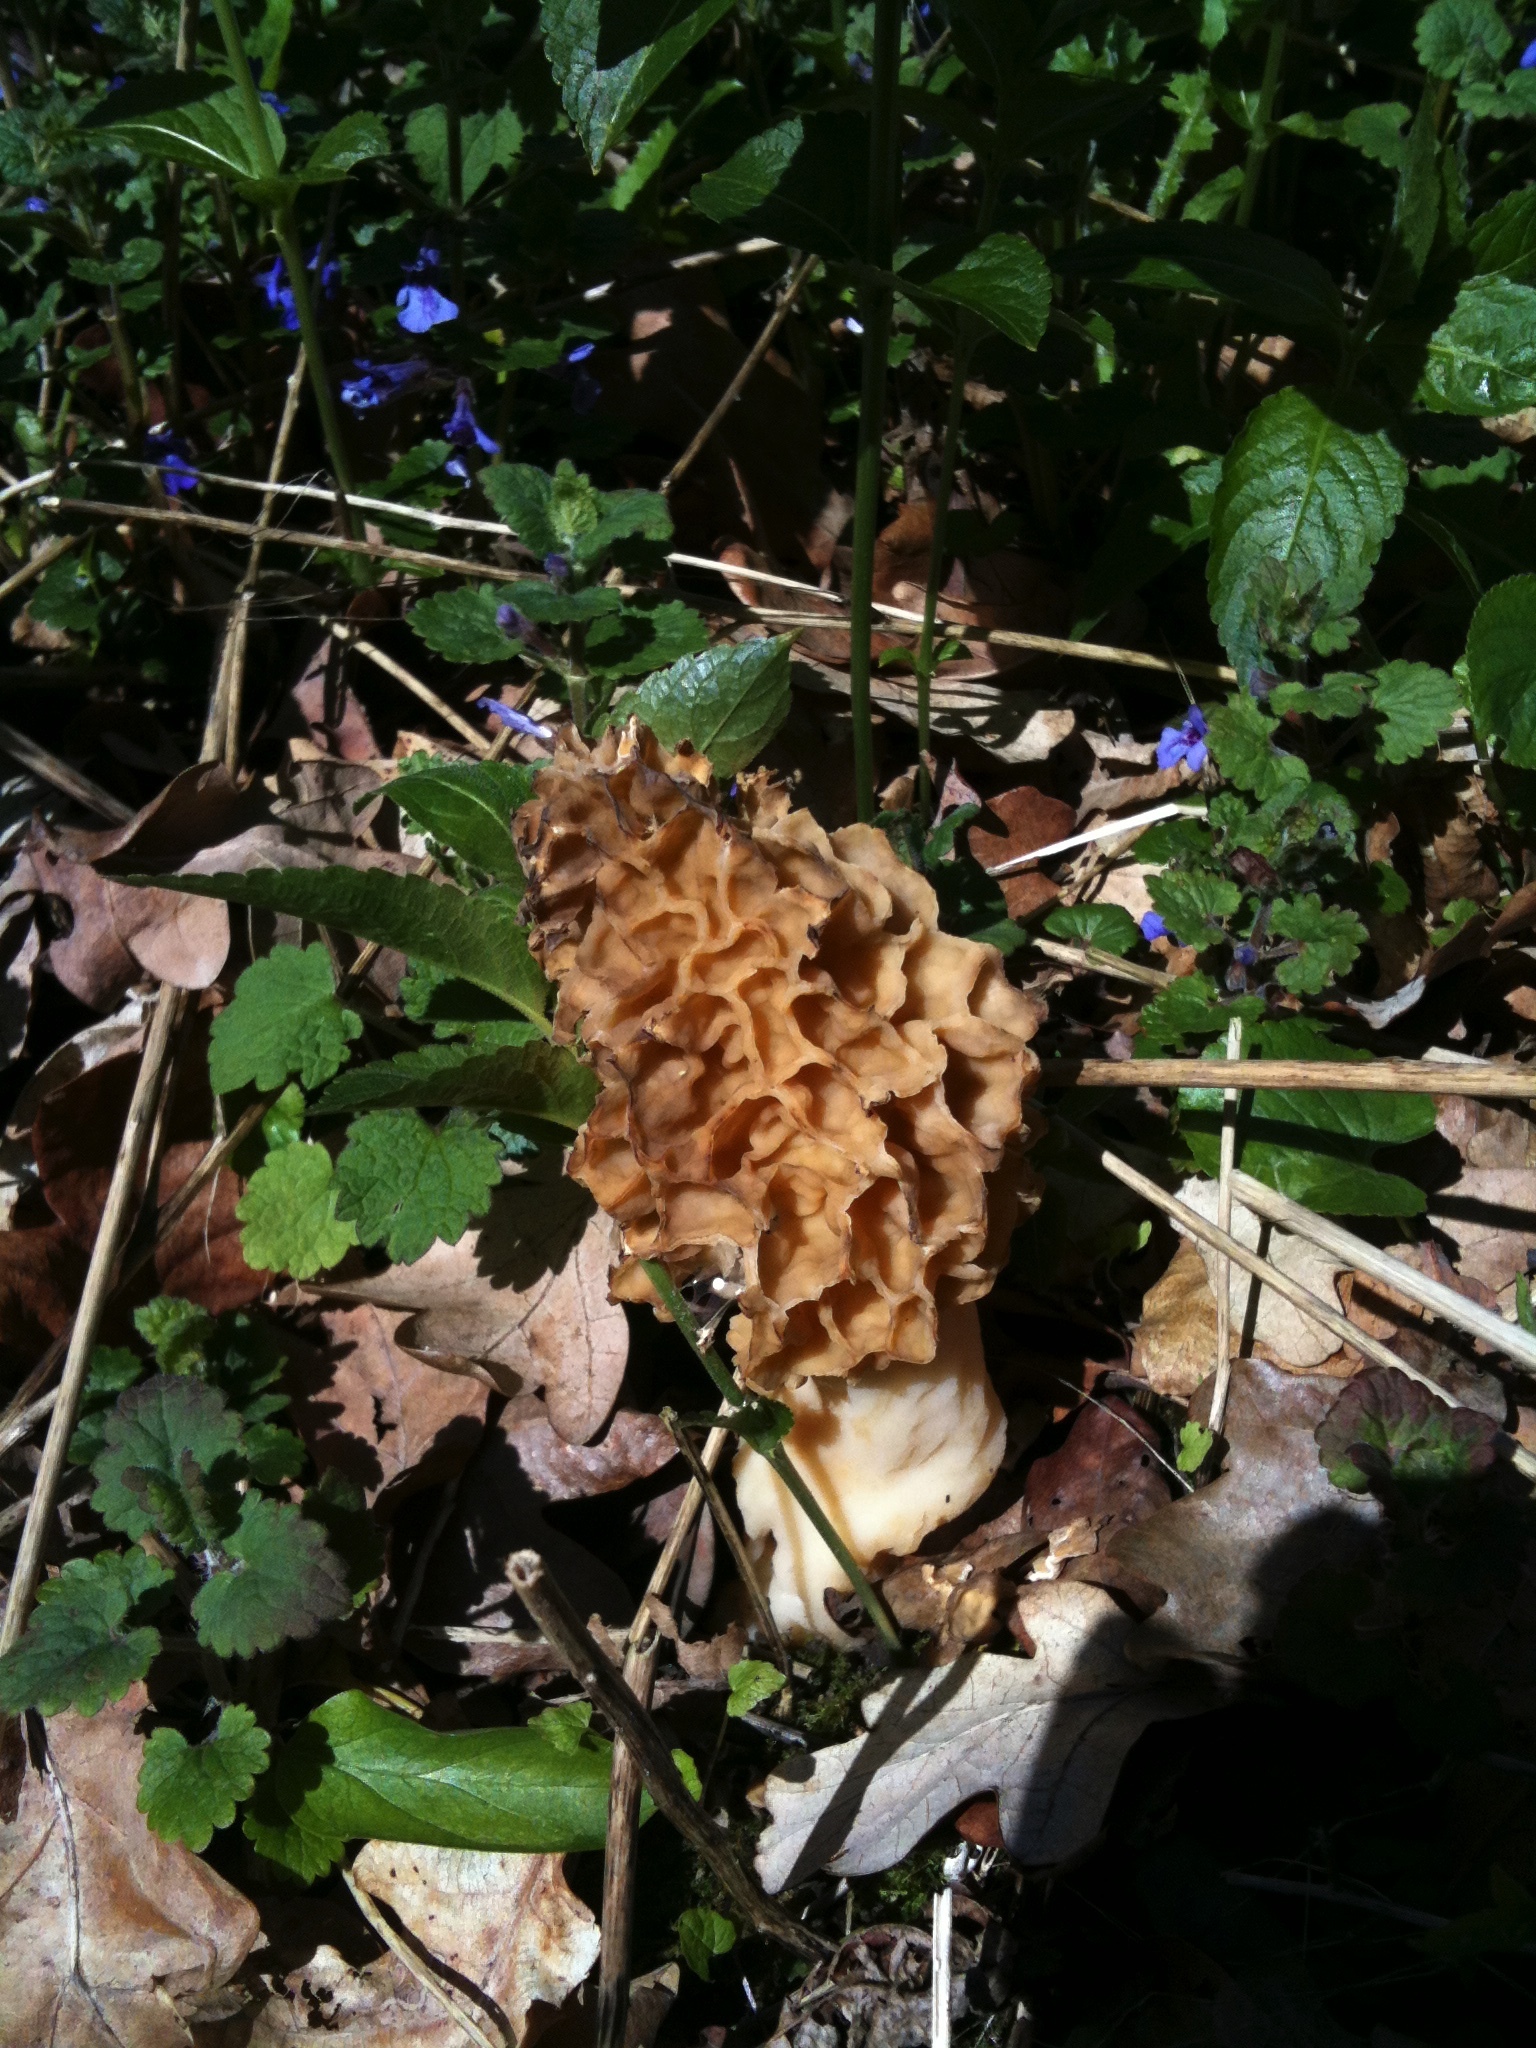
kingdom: Fungi
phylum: Ascomycota
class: Pezizomycetes
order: Pezizales
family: Morchellaceae
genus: Morchella
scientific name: Morchella esculenta
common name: Morel
